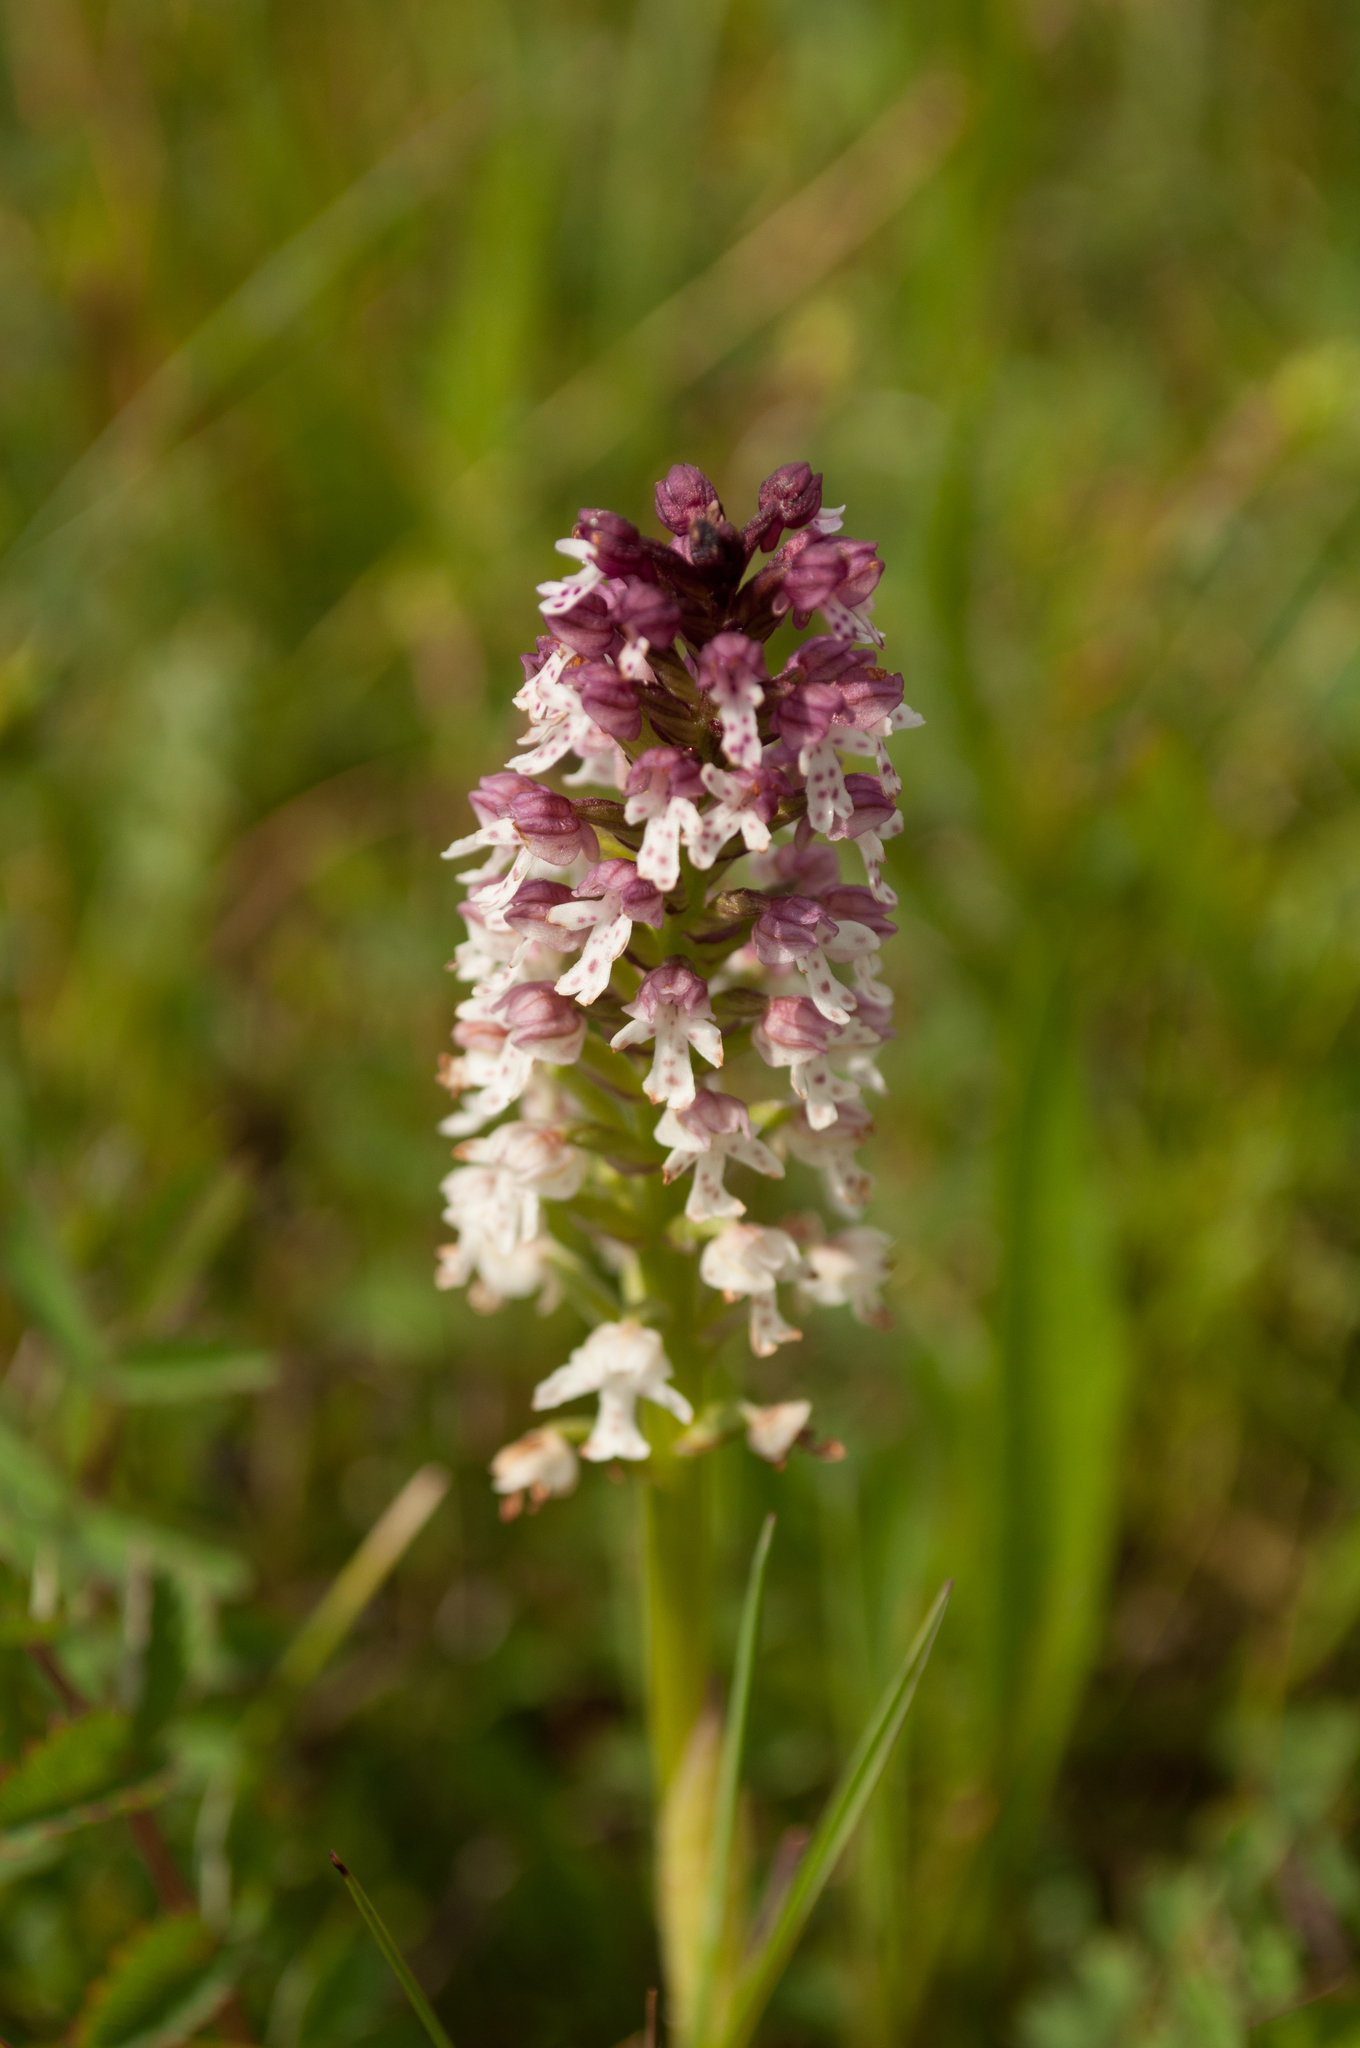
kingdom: Plantae
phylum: Tracheophyta
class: Liliopsida
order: Asparagales
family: Orchidaceae
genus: Neotinea
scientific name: Neotinea ustulata
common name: Burnt orchid
